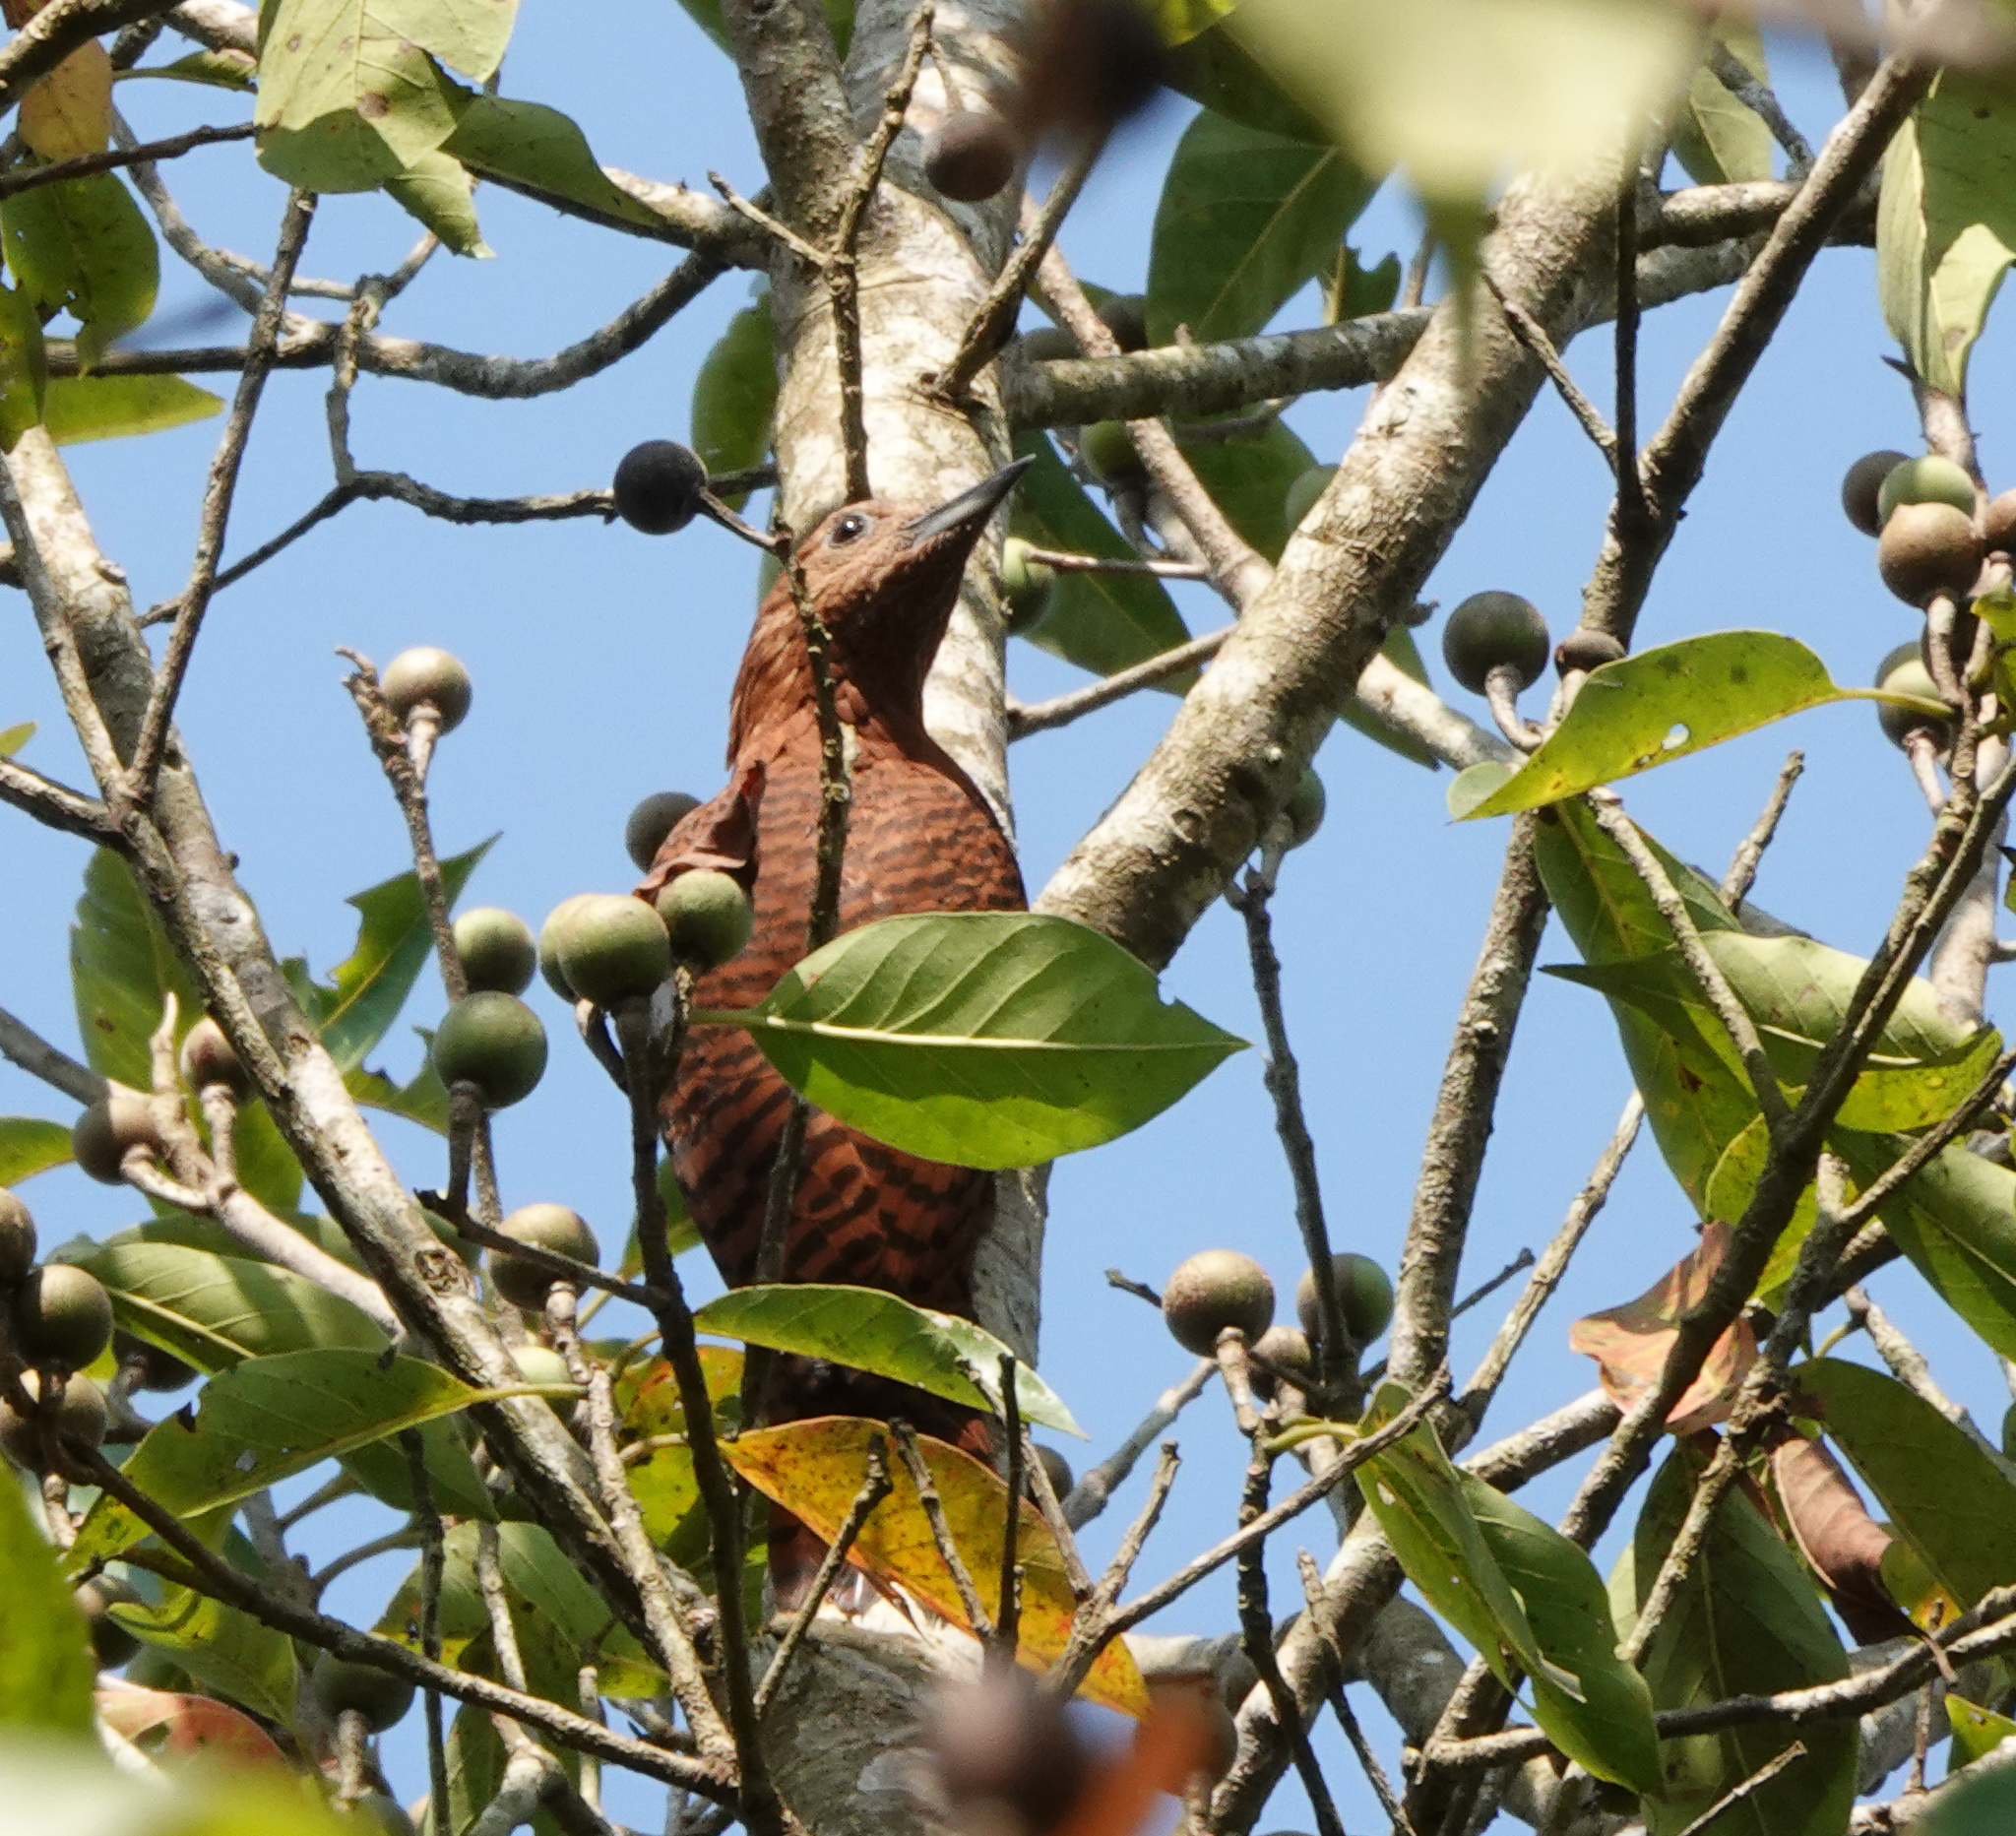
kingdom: Animalia
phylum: Chordata
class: Aves
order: Piciformes
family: Picidae
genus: Micropternus
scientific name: Micropternus brachyurus
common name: Rufous woodpecker
